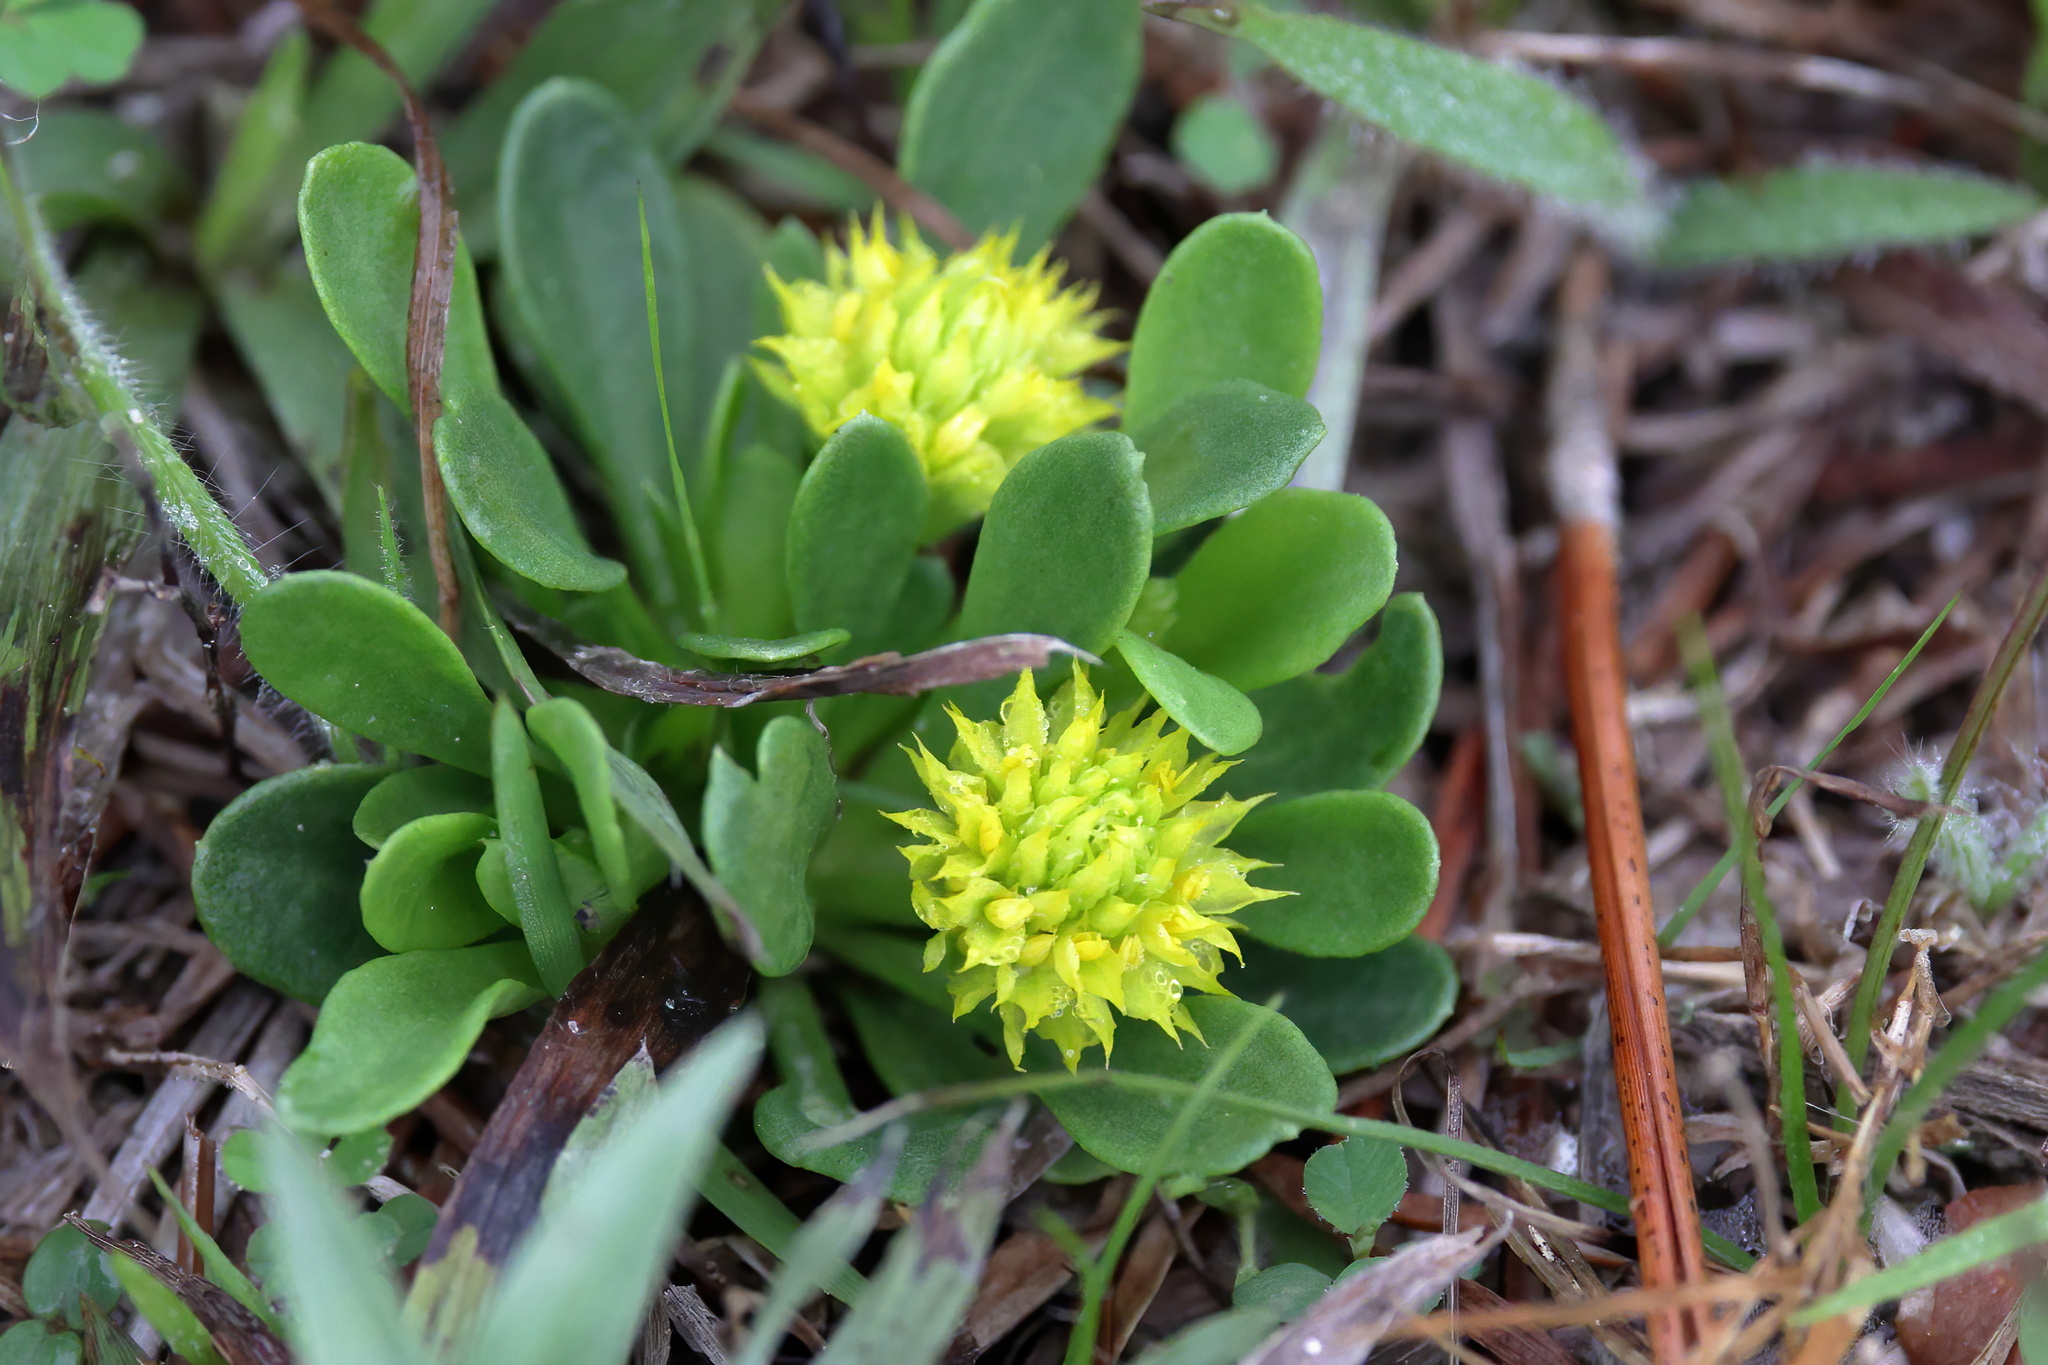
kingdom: Plantae
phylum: Tracheophyta
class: Magnoliopsida
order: Fabales
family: Polygalaceae
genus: Polygala
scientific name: Polygala nana
